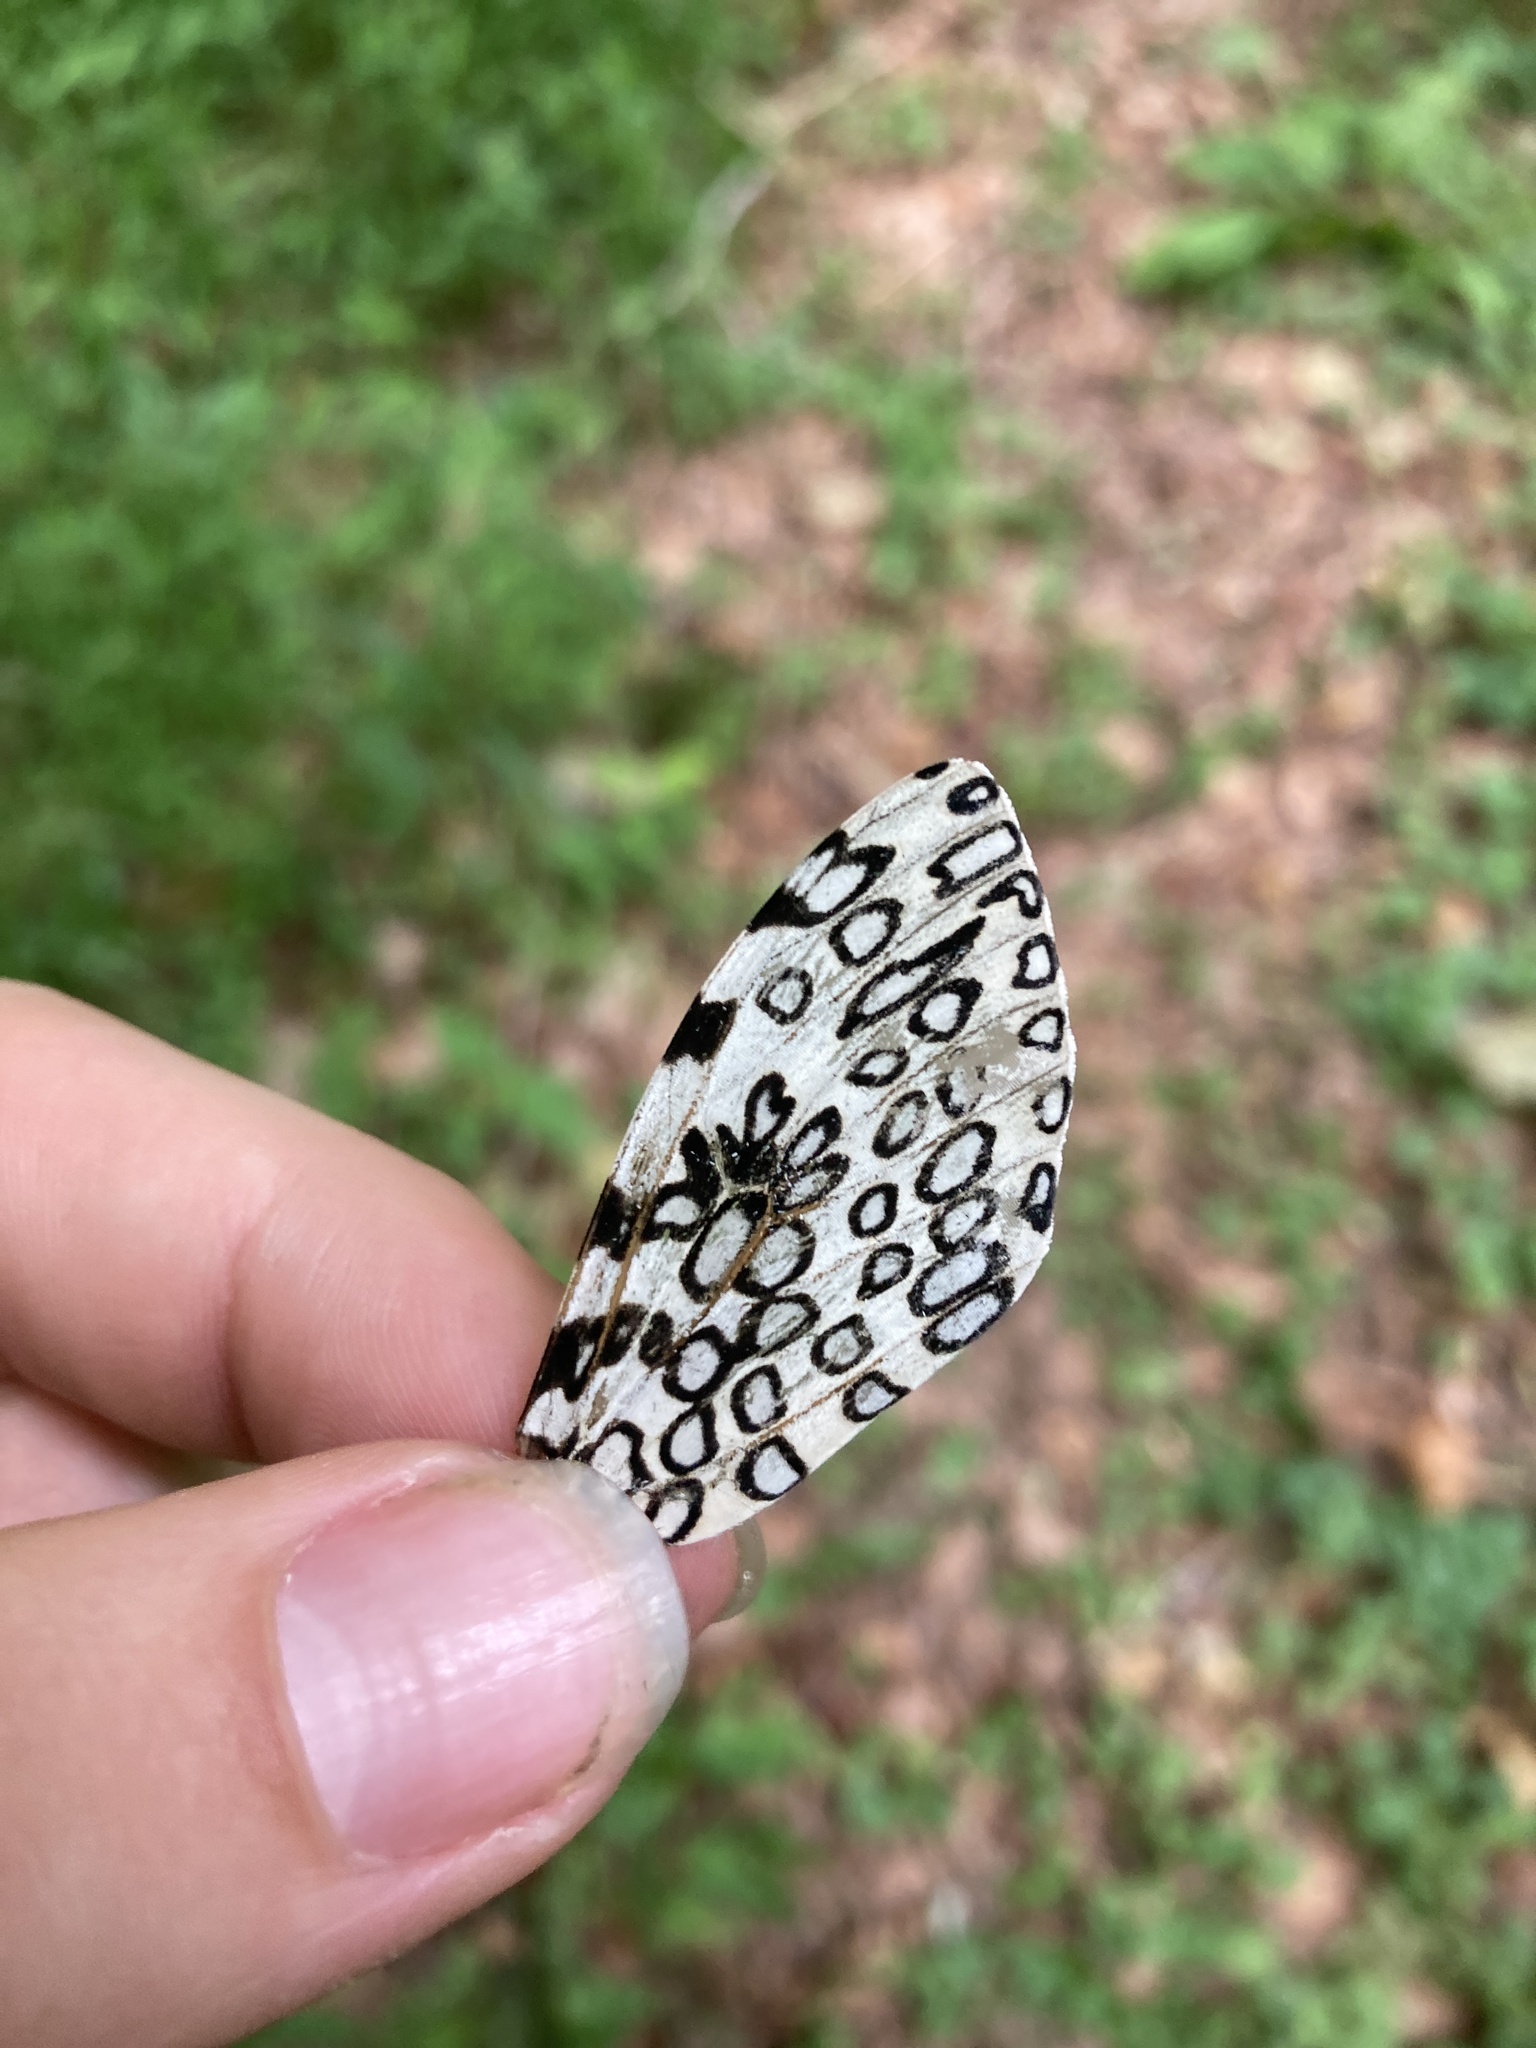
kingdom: Animalia
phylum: Arthropoda
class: Insecta
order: Lepidoptera
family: Erebidae
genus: Hypercompe
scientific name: Hypercompe scribonia
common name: Giant leopard moth
